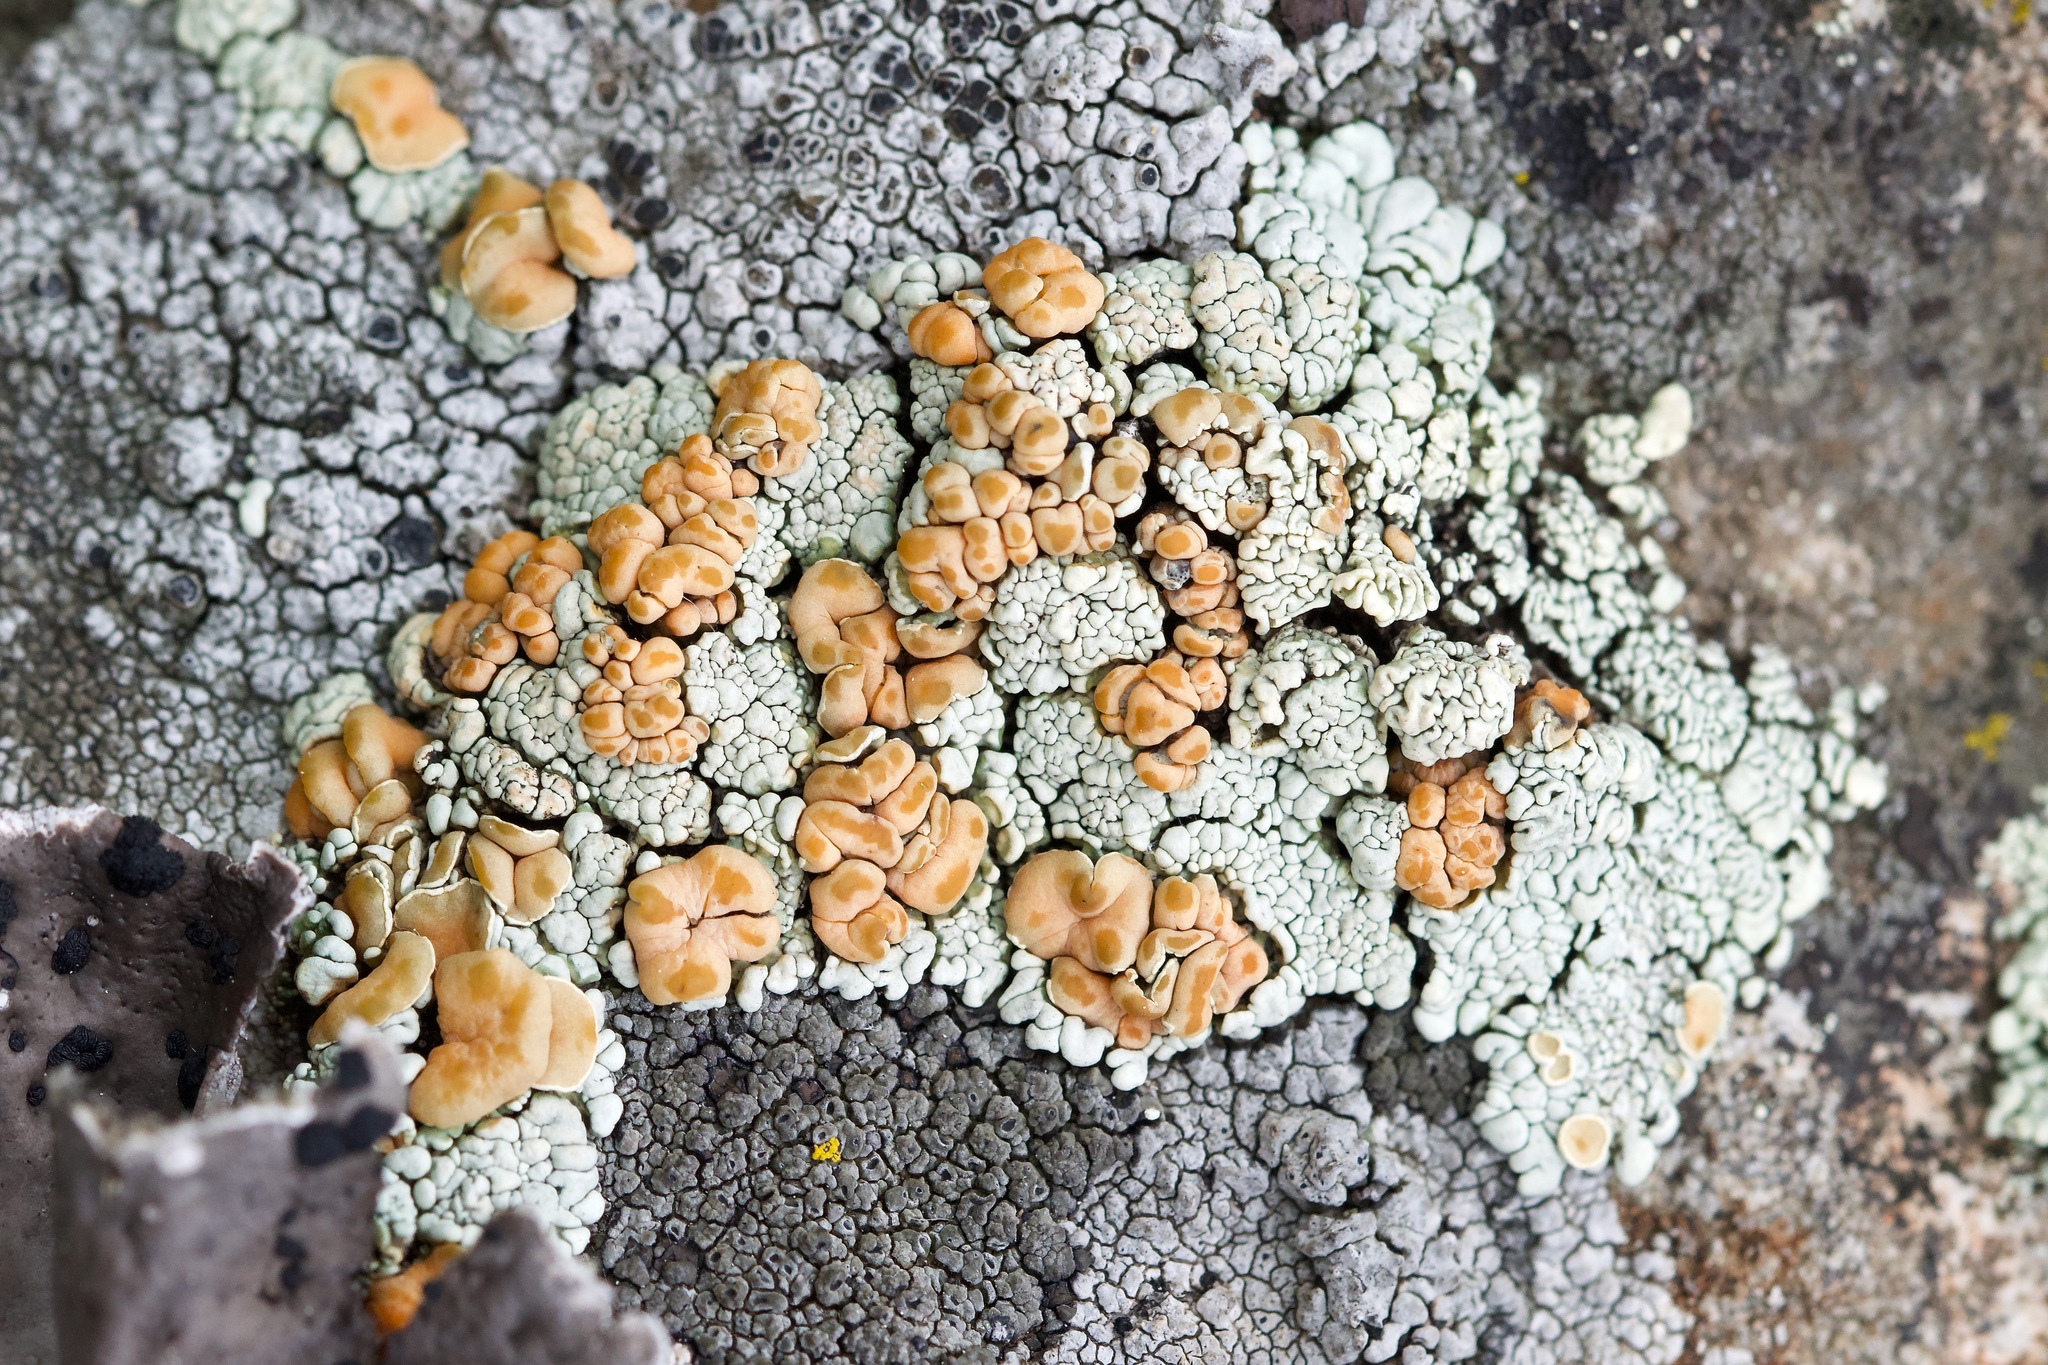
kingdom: Fungi
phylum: Ascomycota
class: Lecanoromycetes
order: Lecanorales
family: Lecanoraceae
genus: Sedelnikovaea
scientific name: Sedelnikovaea subdiscrepans
